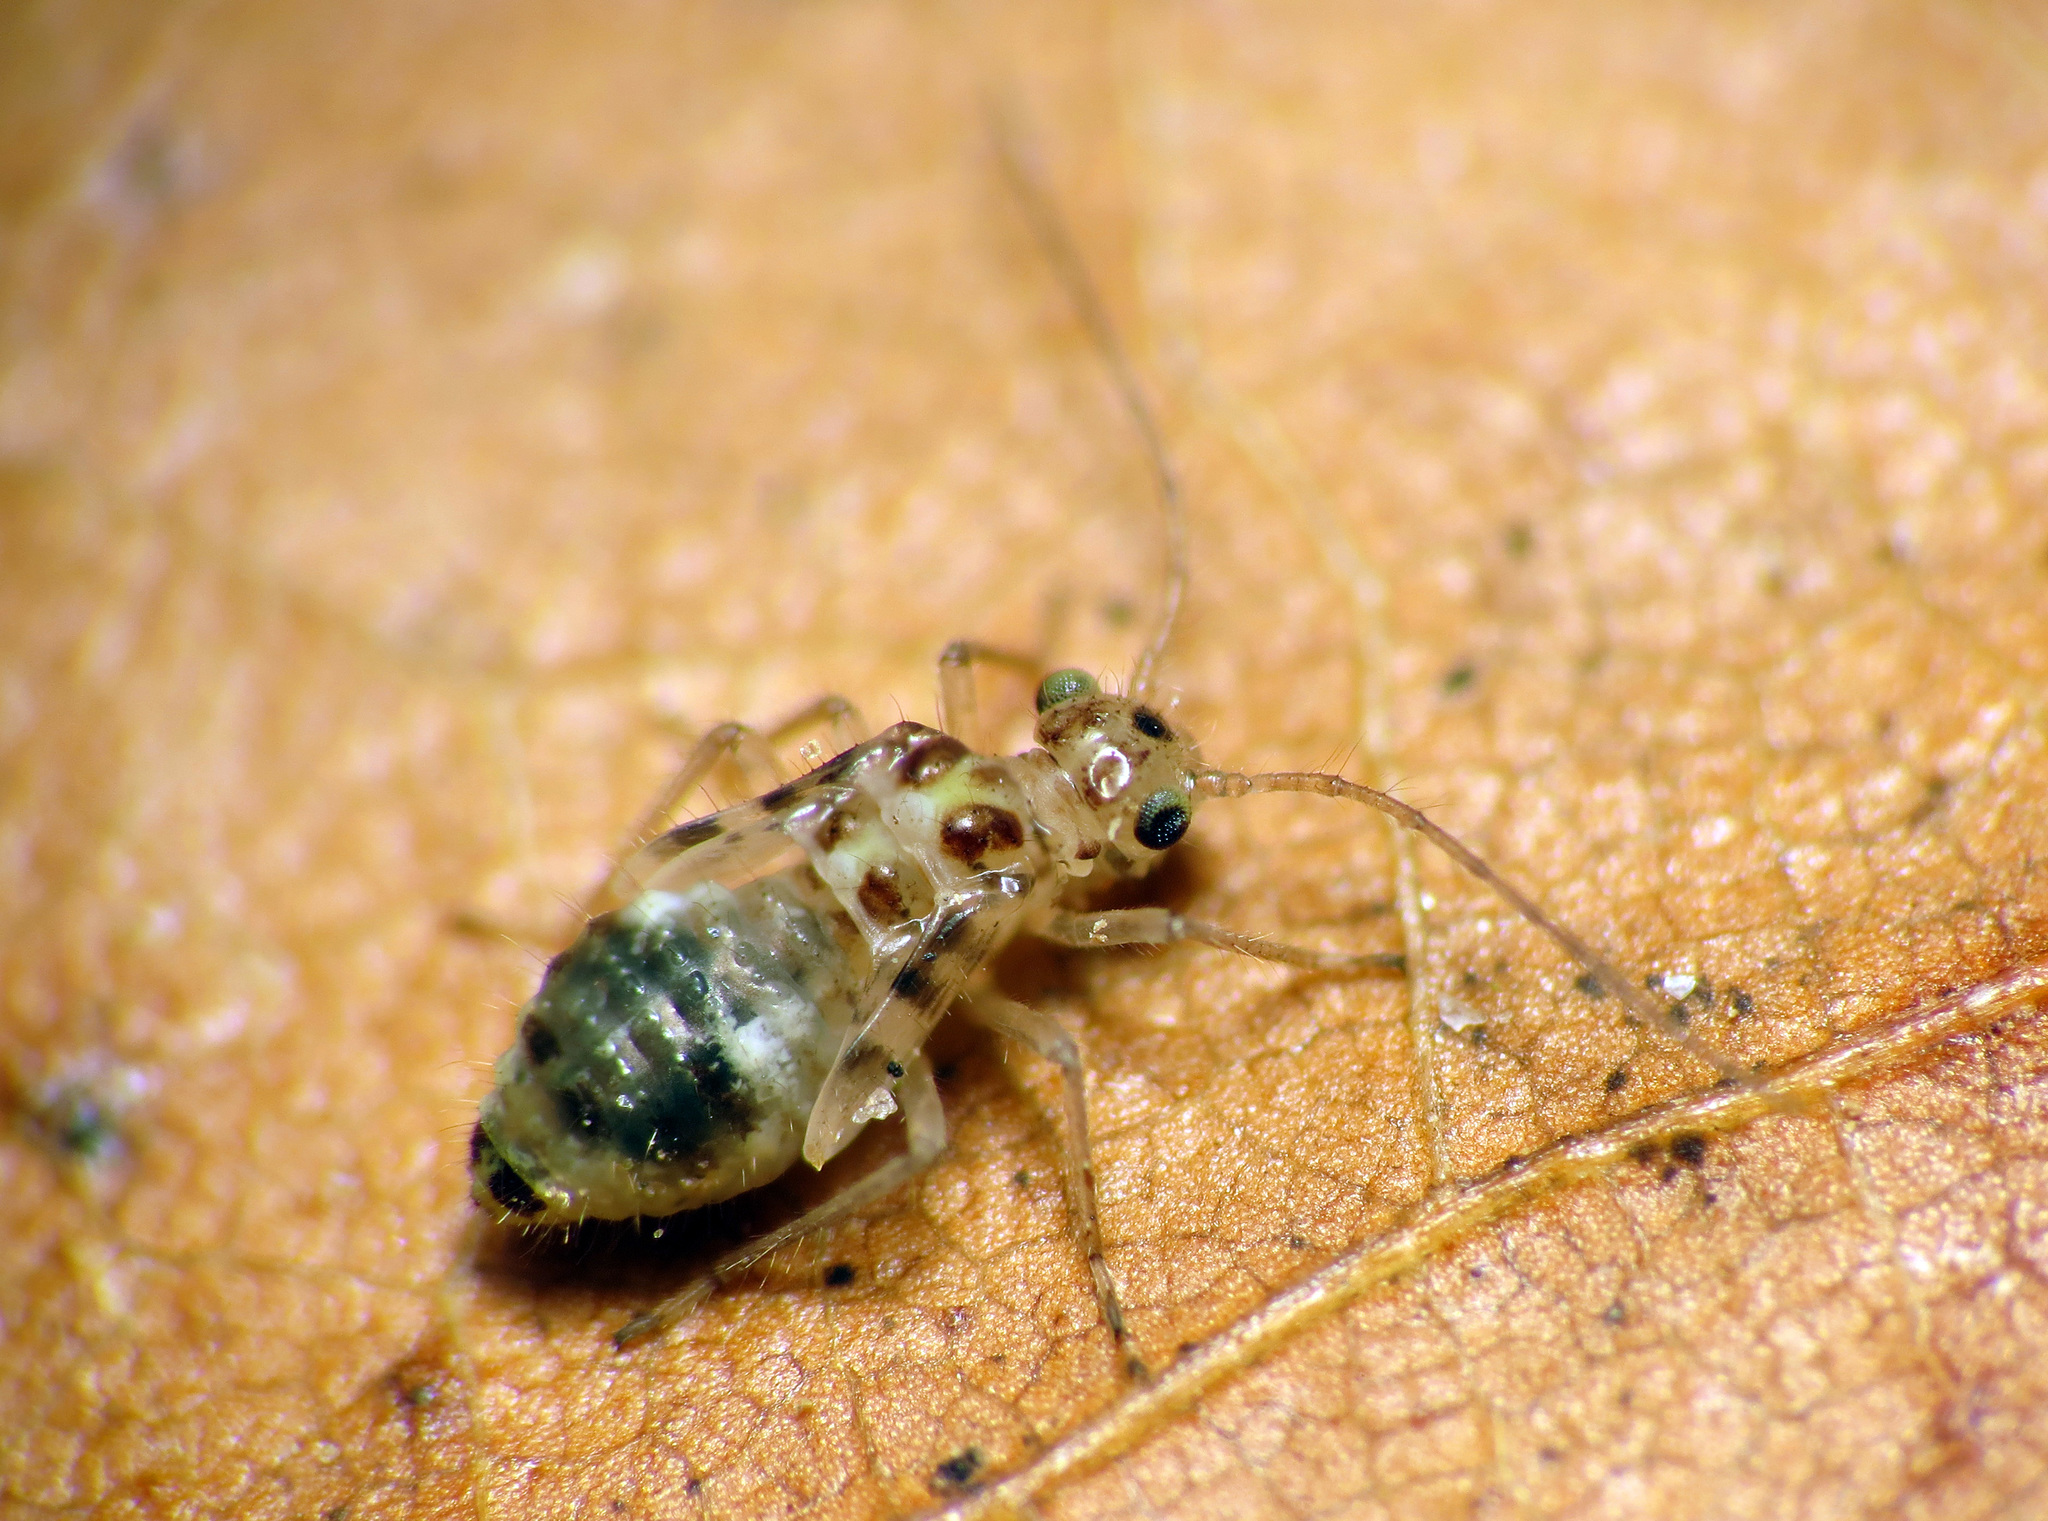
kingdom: Animalia
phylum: Arthropoda
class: Insecta
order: Psocodea
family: Dasydemellidae
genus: Teliapsocus
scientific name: Teliapsocus conterminus
